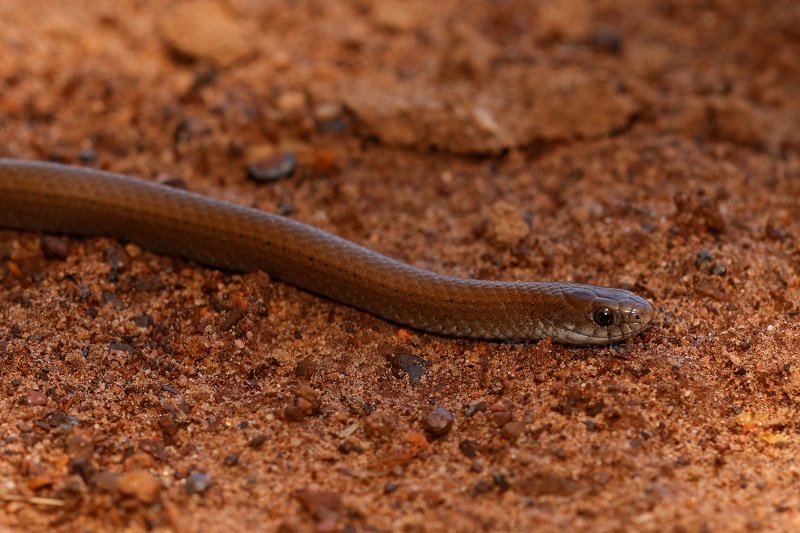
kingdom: Animalia
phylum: Chordata
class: Squamata
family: Pseudoxyrhophiidae
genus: Duberria
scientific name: Duberria lutrix
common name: Common slug eater
